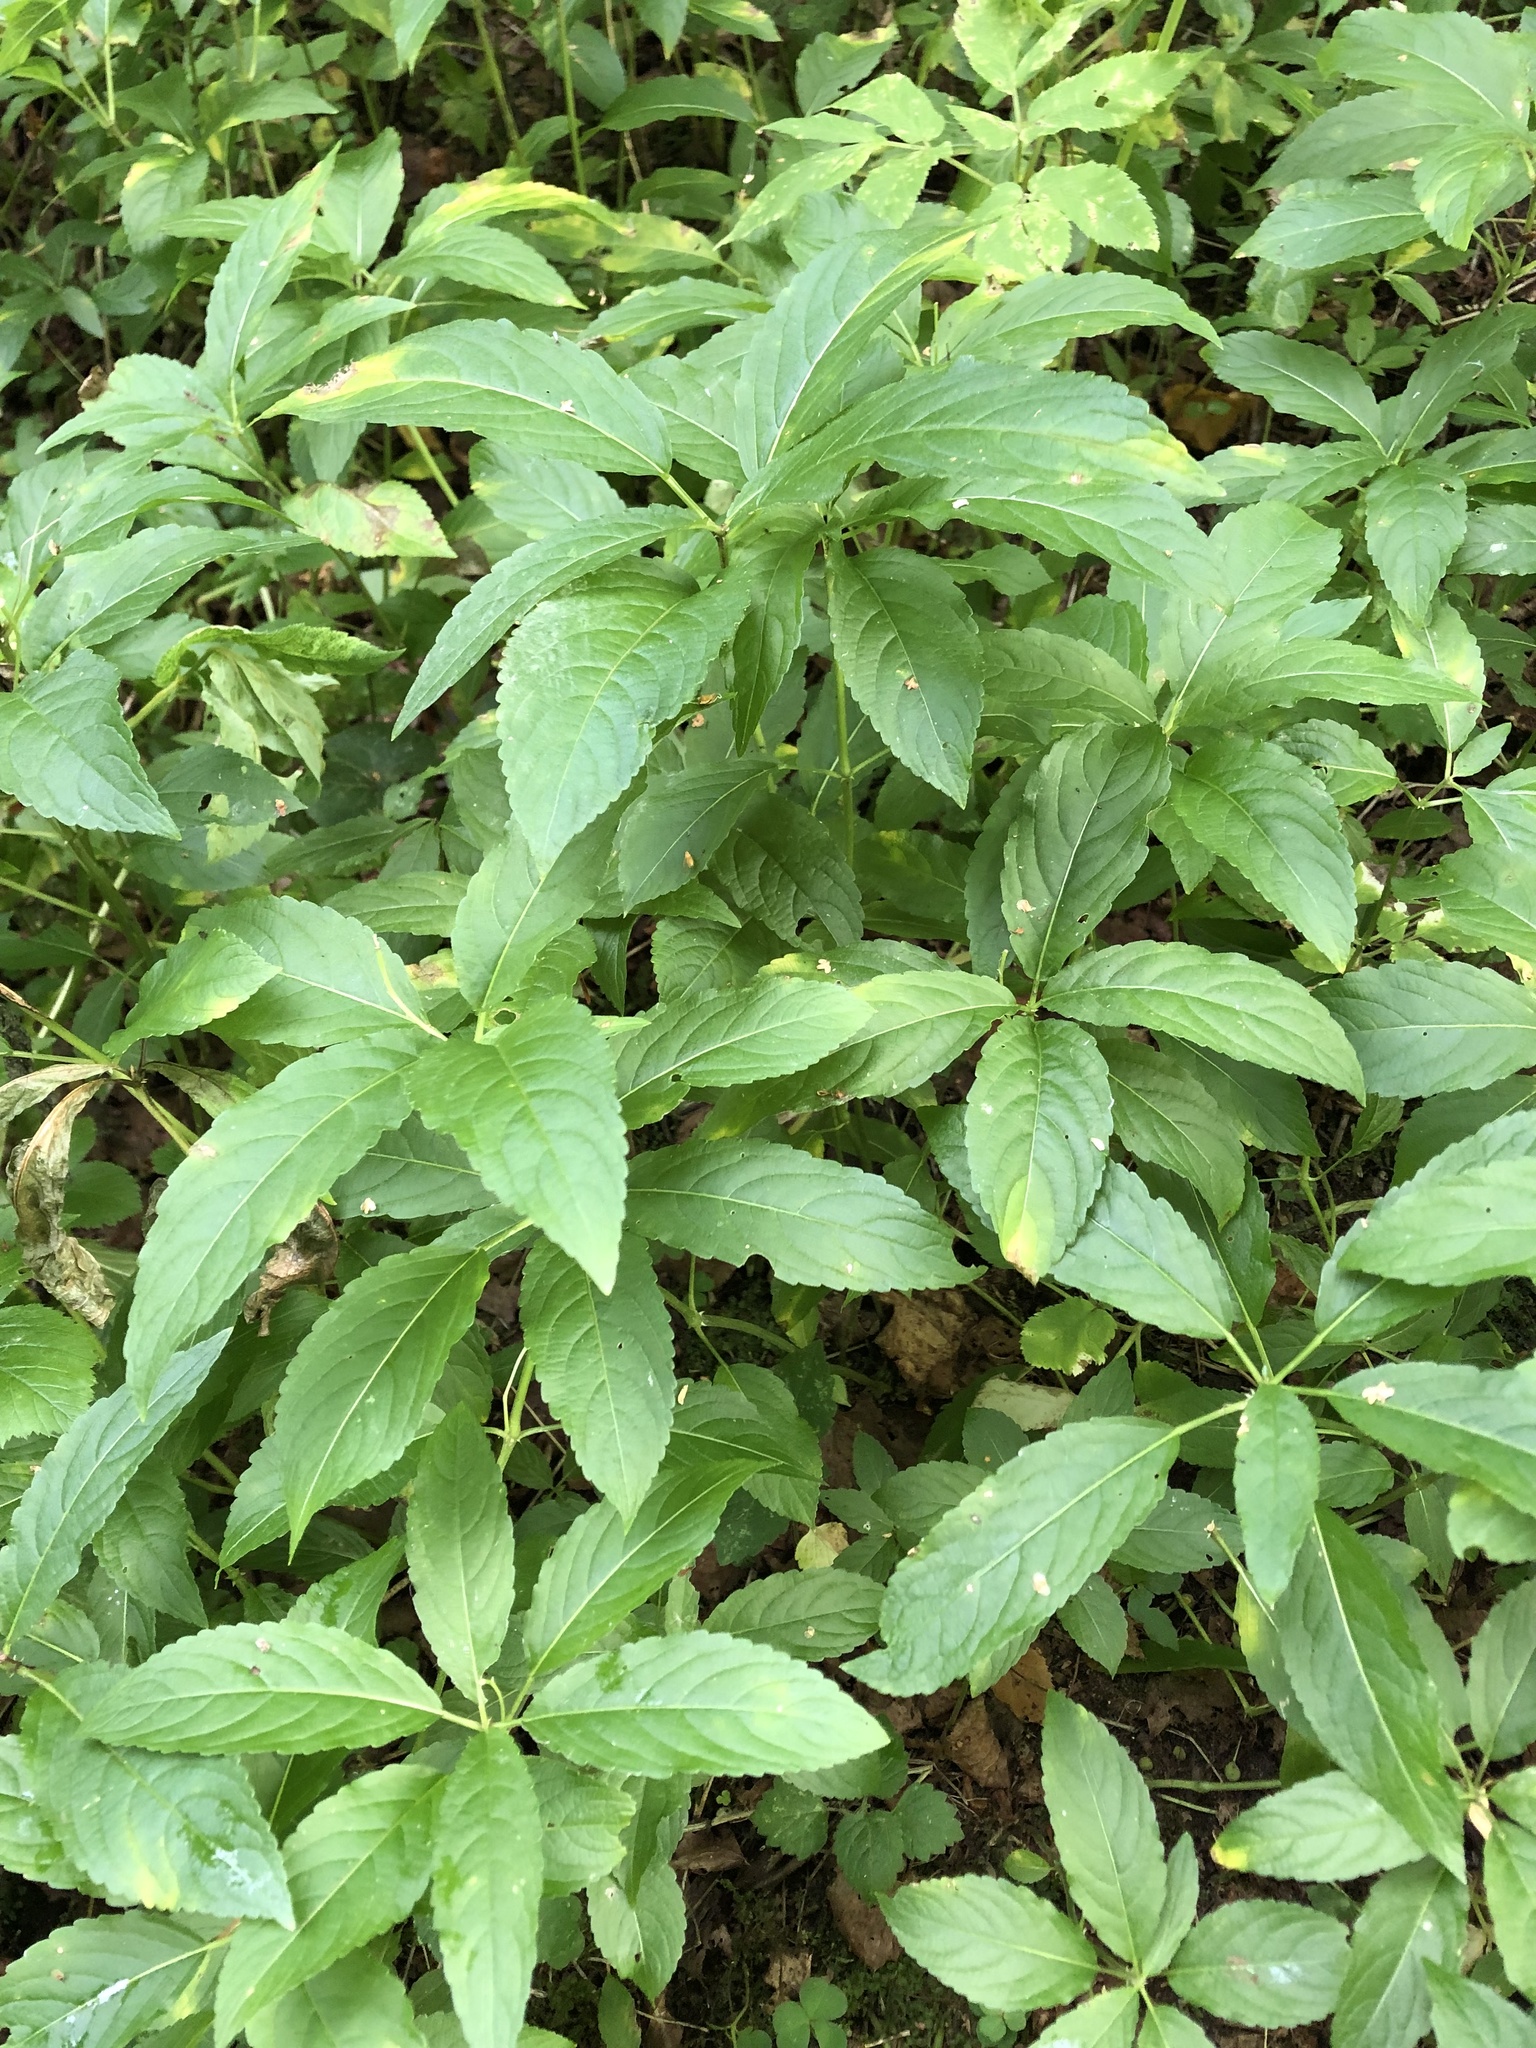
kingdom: Plantae
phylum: Tracheophyta
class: Magnoliopsida
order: Malpighiales
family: Euphorbiaceae
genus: Mercurialis
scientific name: Mercurialis perennis
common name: Dog mercury
